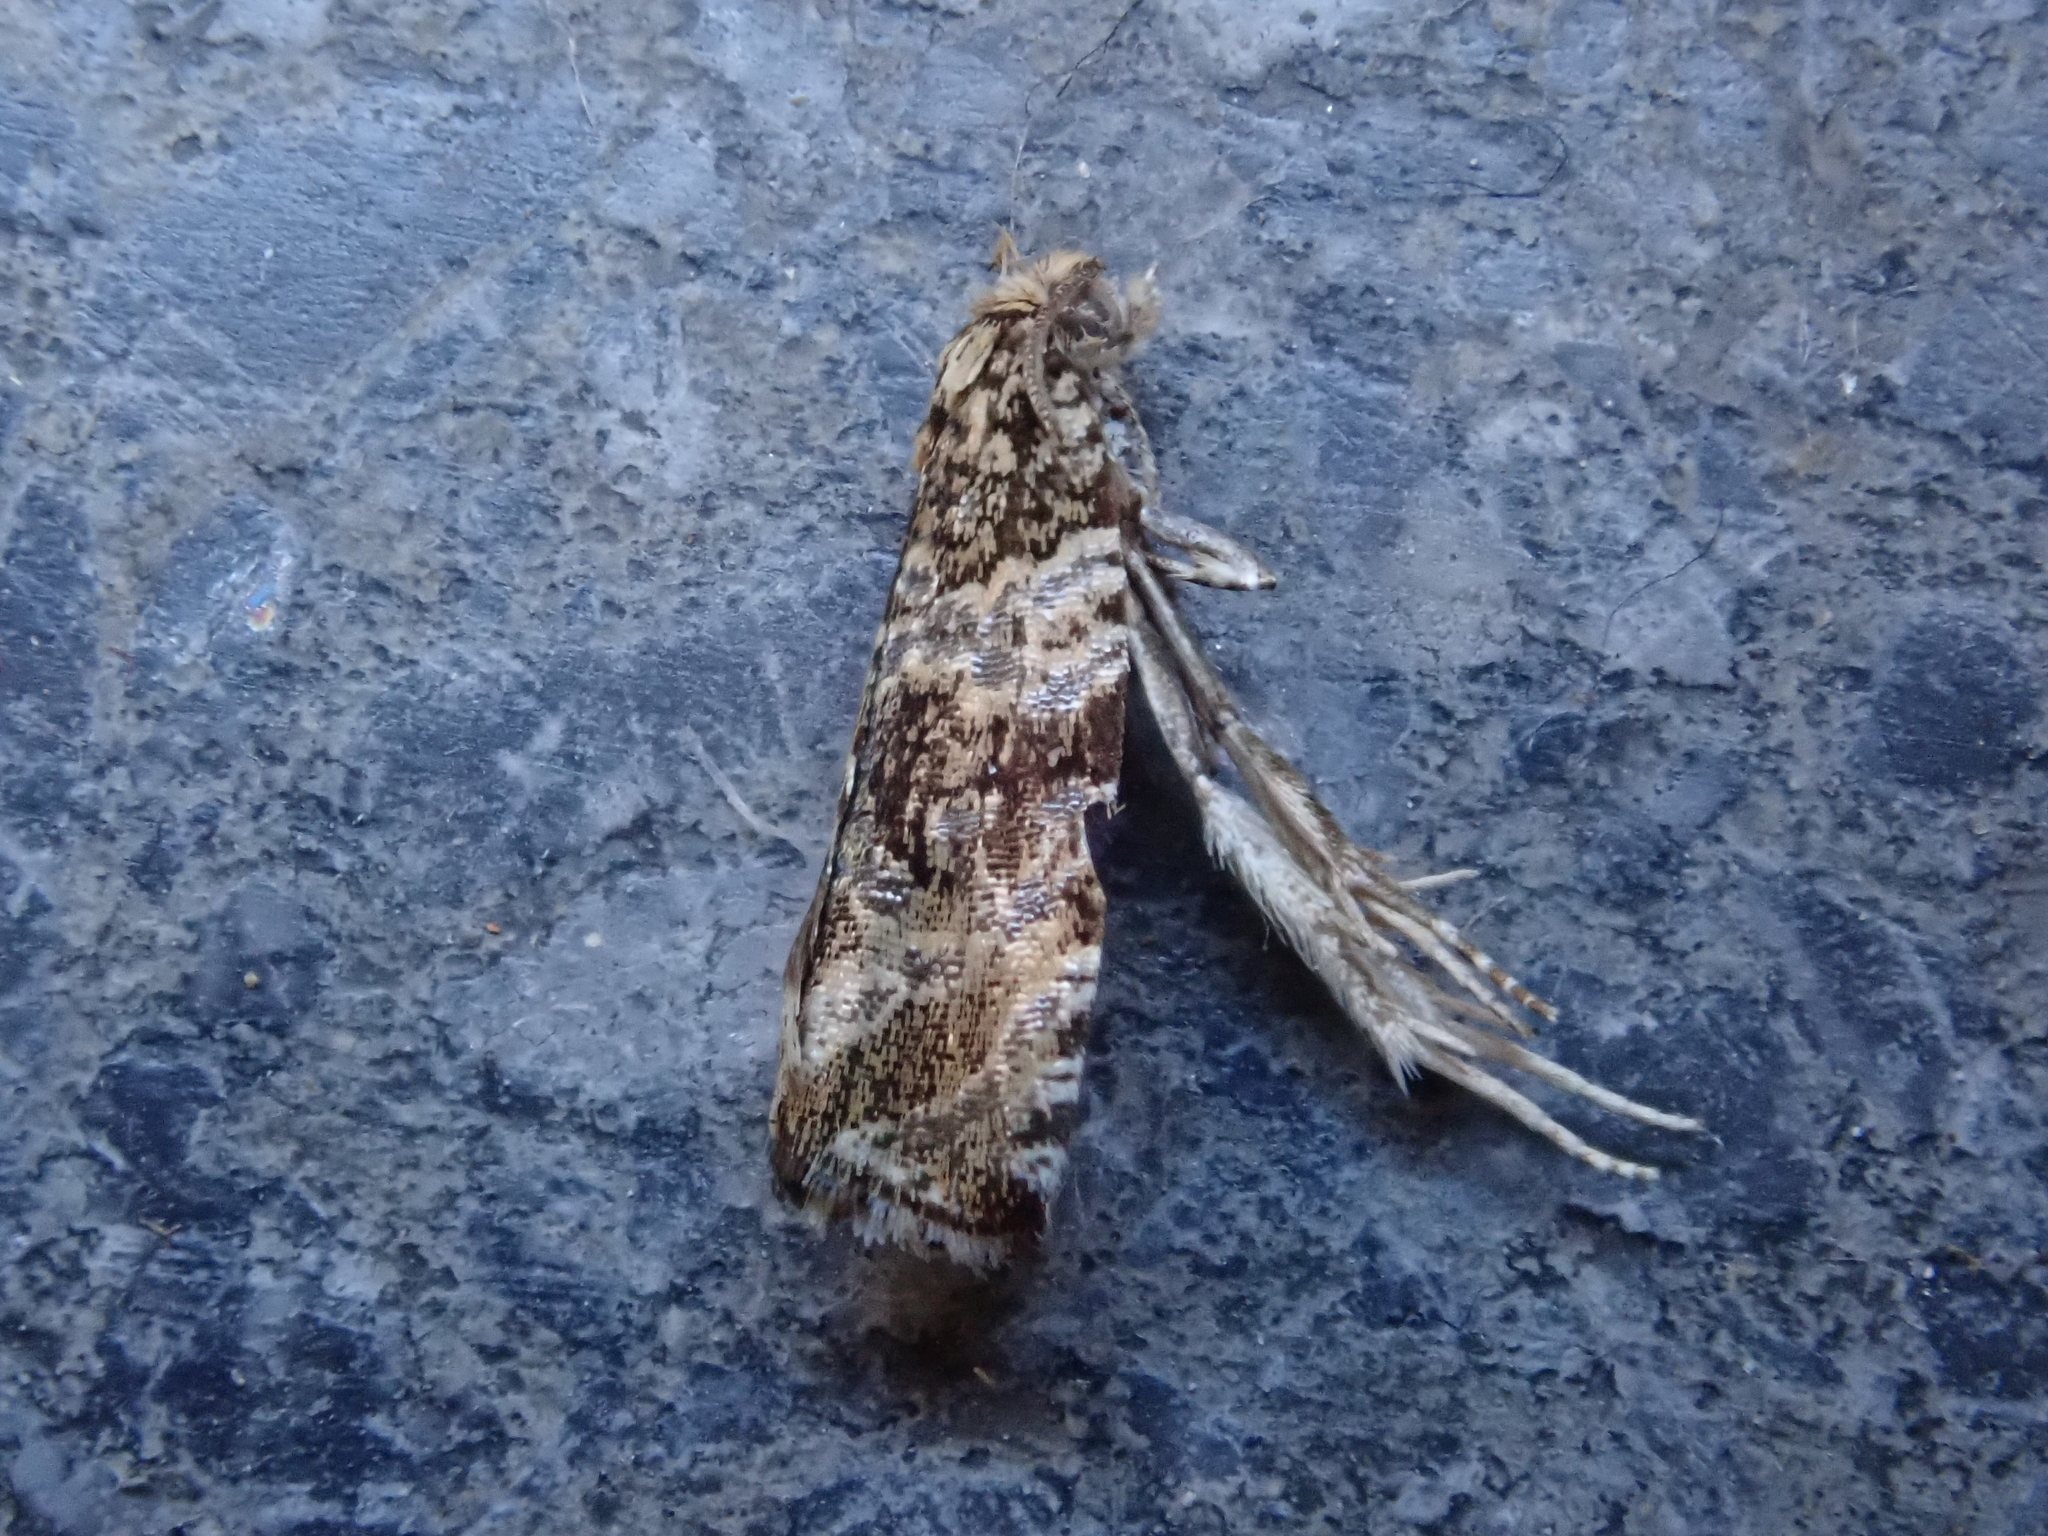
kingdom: Animalia
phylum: Arthropoda
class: Insecta
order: Lepidoptera
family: Tortricidae
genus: Syricoris
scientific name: Syricoris lacunana
